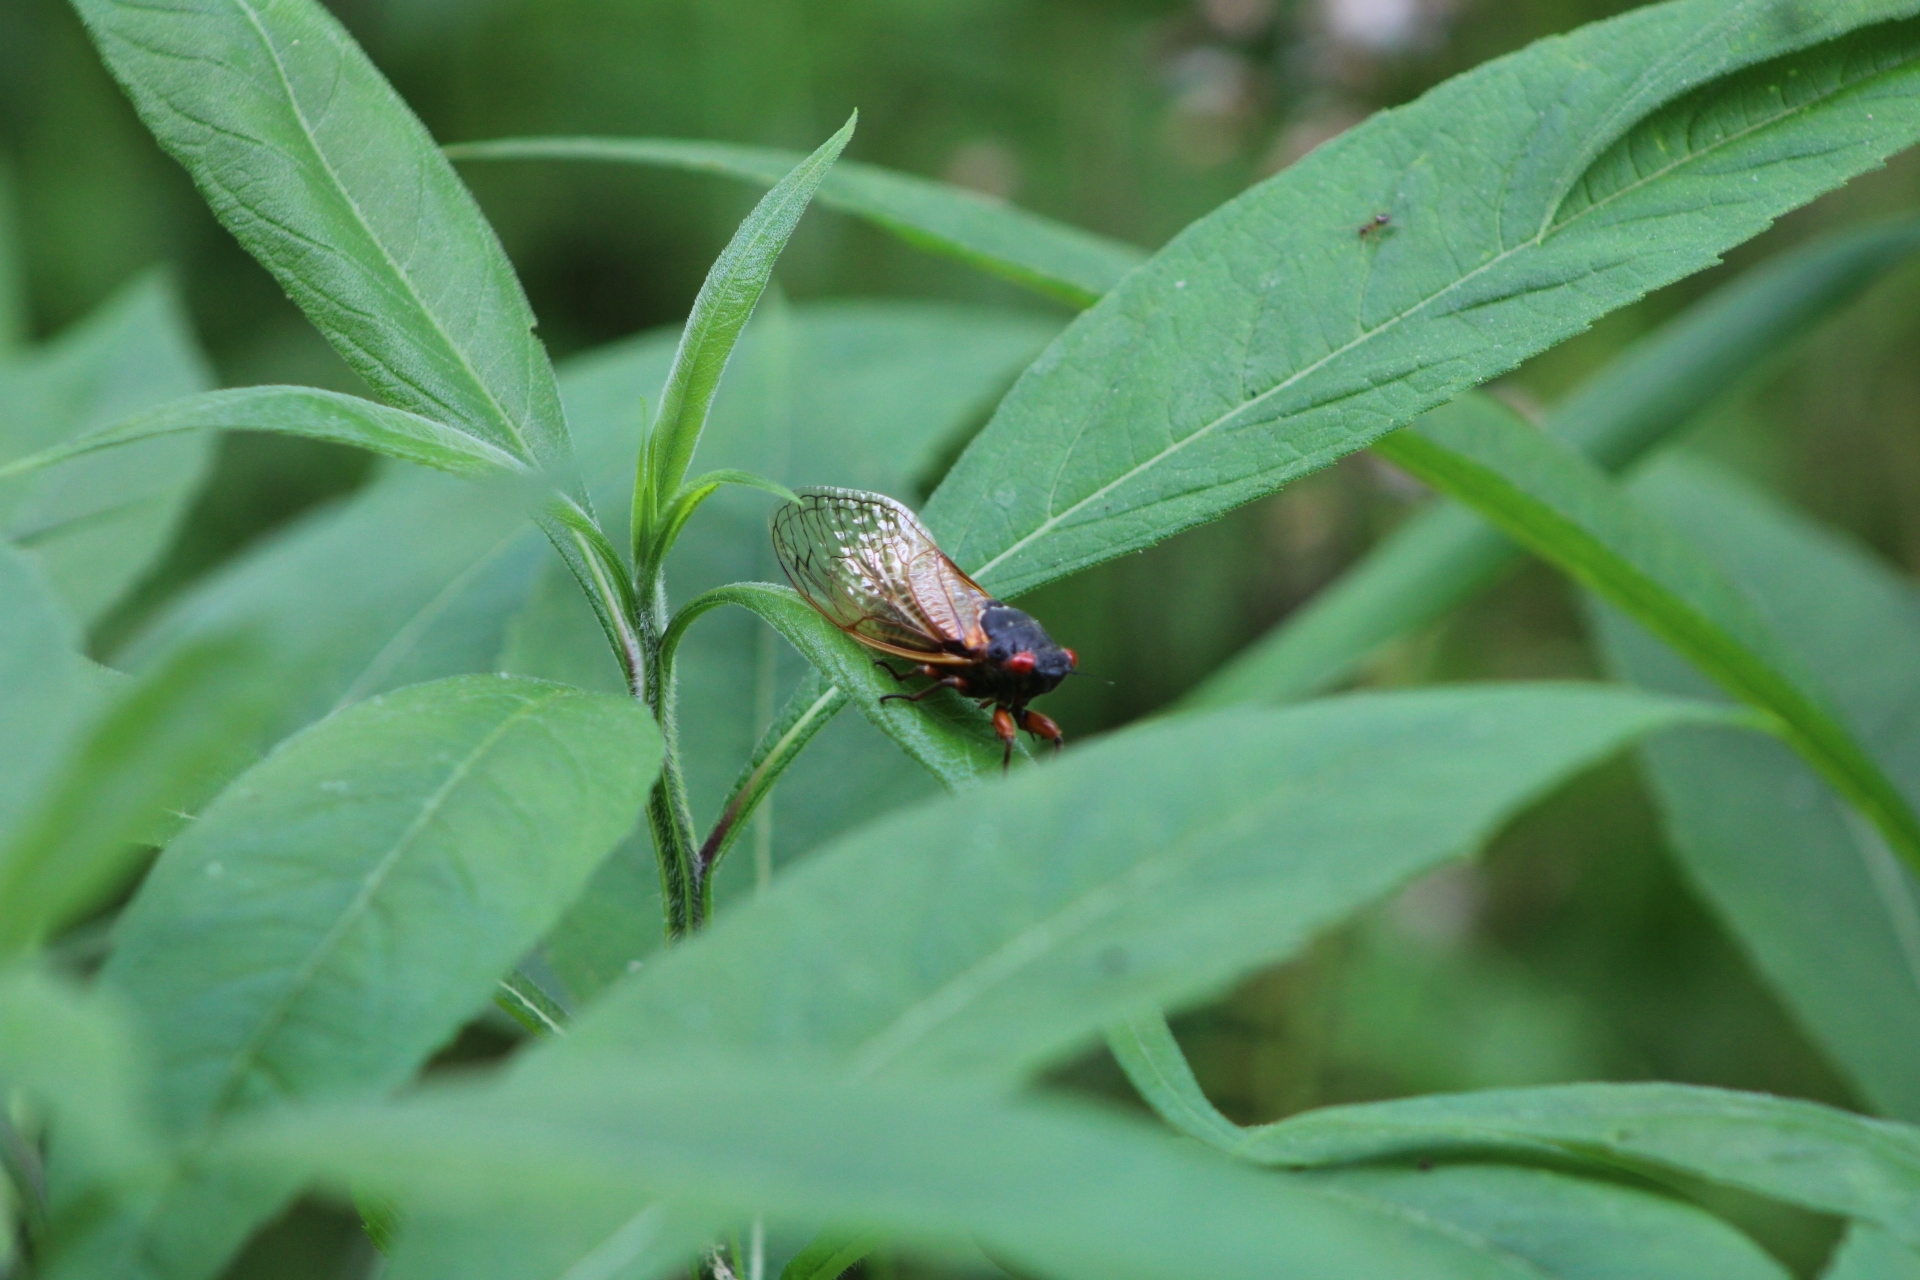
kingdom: Animalia
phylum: Arthropoda
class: Insecta
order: Hemiptera
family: Cicadidae
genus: Magicicada
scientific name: Magicicada septendecim
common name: Periodical cicada
